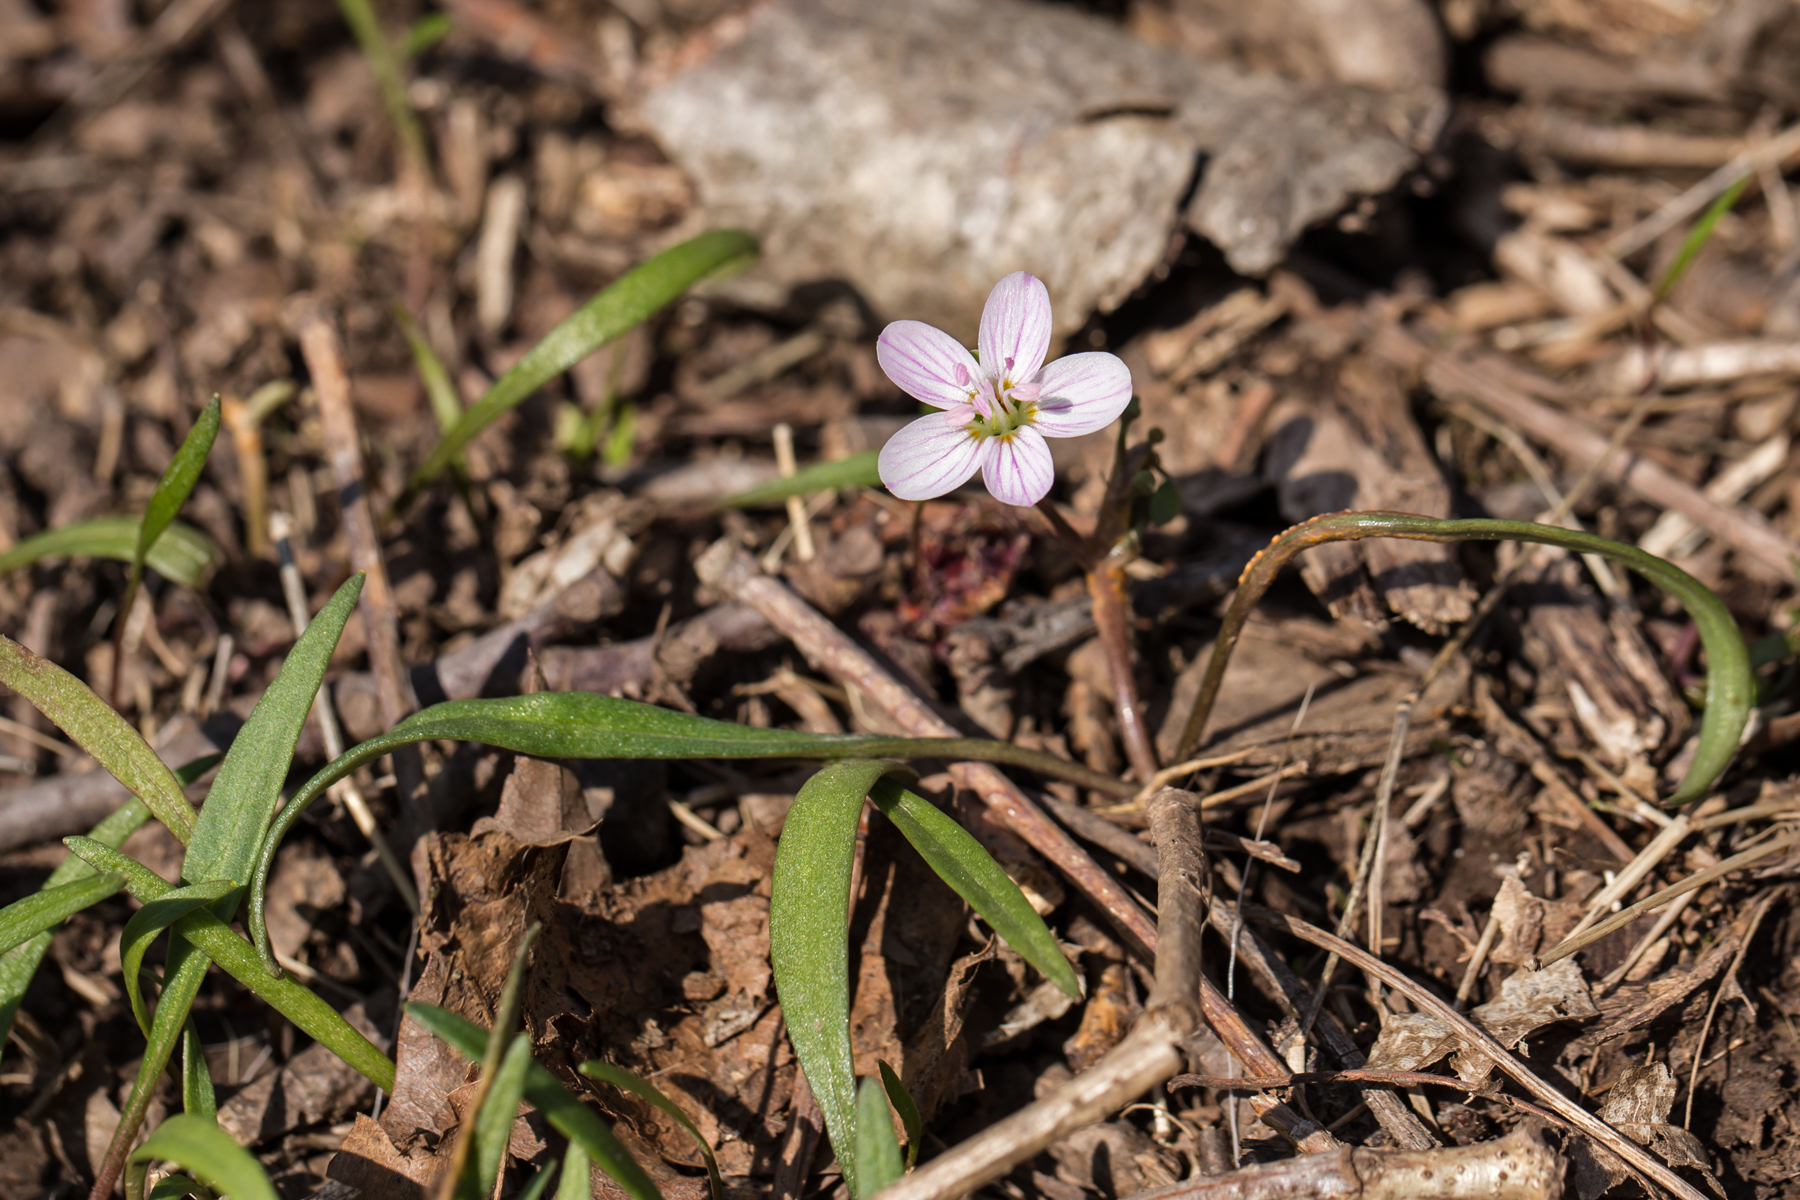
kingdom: Plantae
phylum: Tracheophyta
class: Magnoliopsida
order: Caryophyllales
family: Montiaceae
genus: Claytonia
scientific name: Claytonia virginica
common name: Virginia springbeauty
